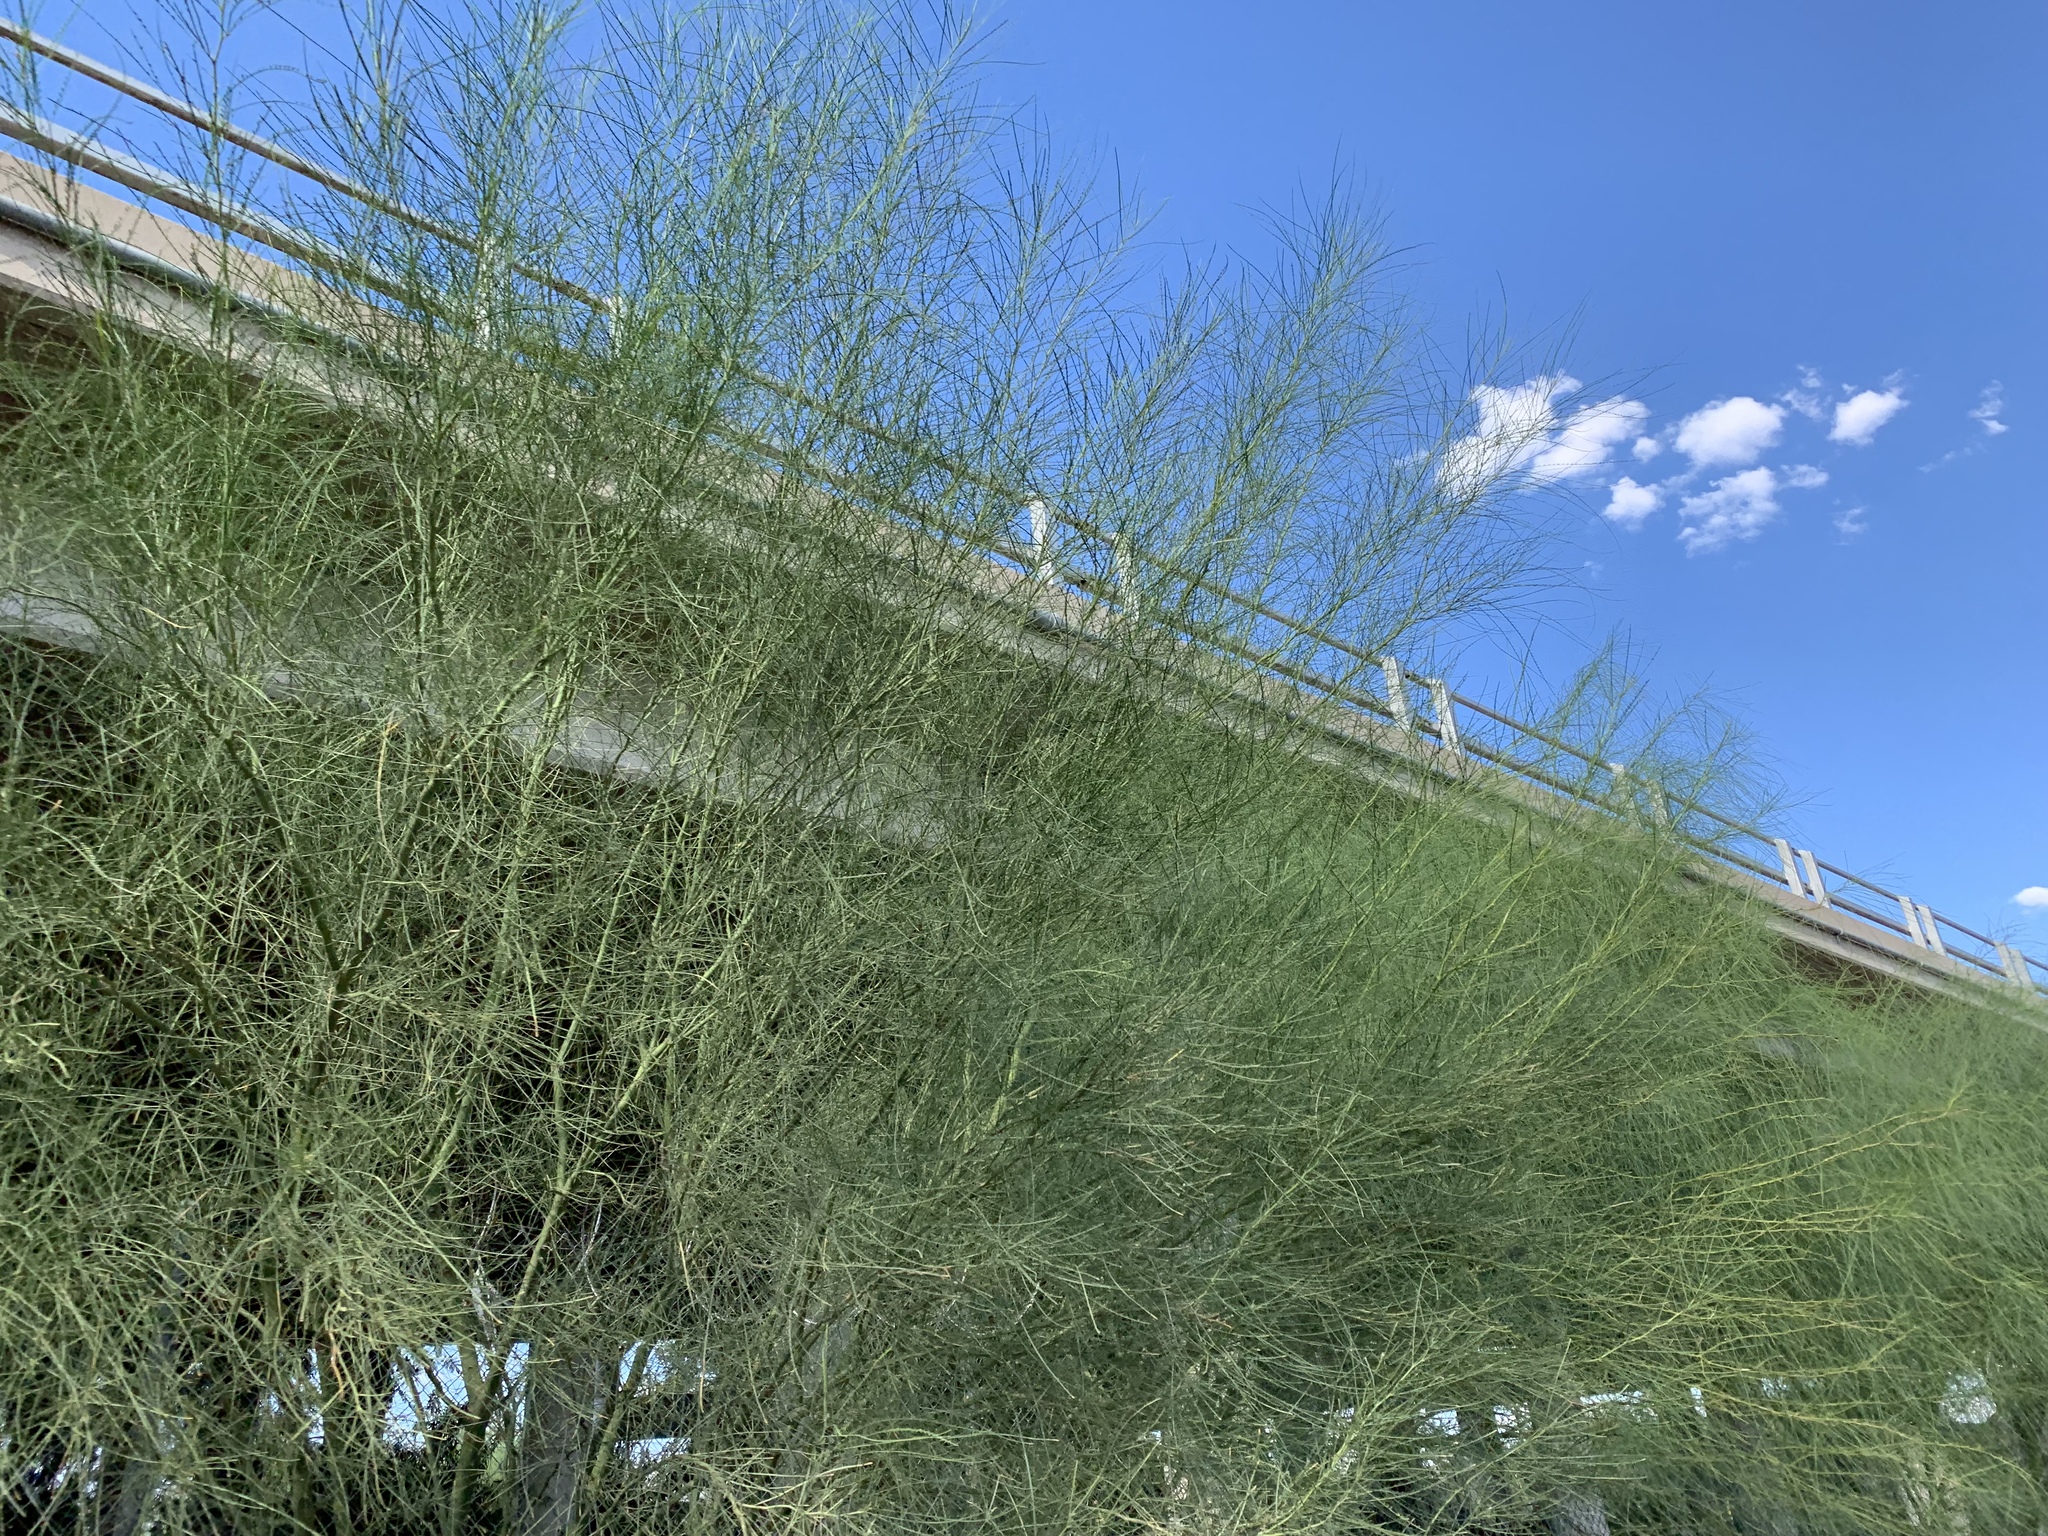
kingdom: Plantae
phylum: Tracheophyta
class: Magnoliopsida
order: Fabales
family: Fabaceae
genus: Parkinsonia
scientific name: Parkinsonia aculeata
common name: Jerusalem thorn
